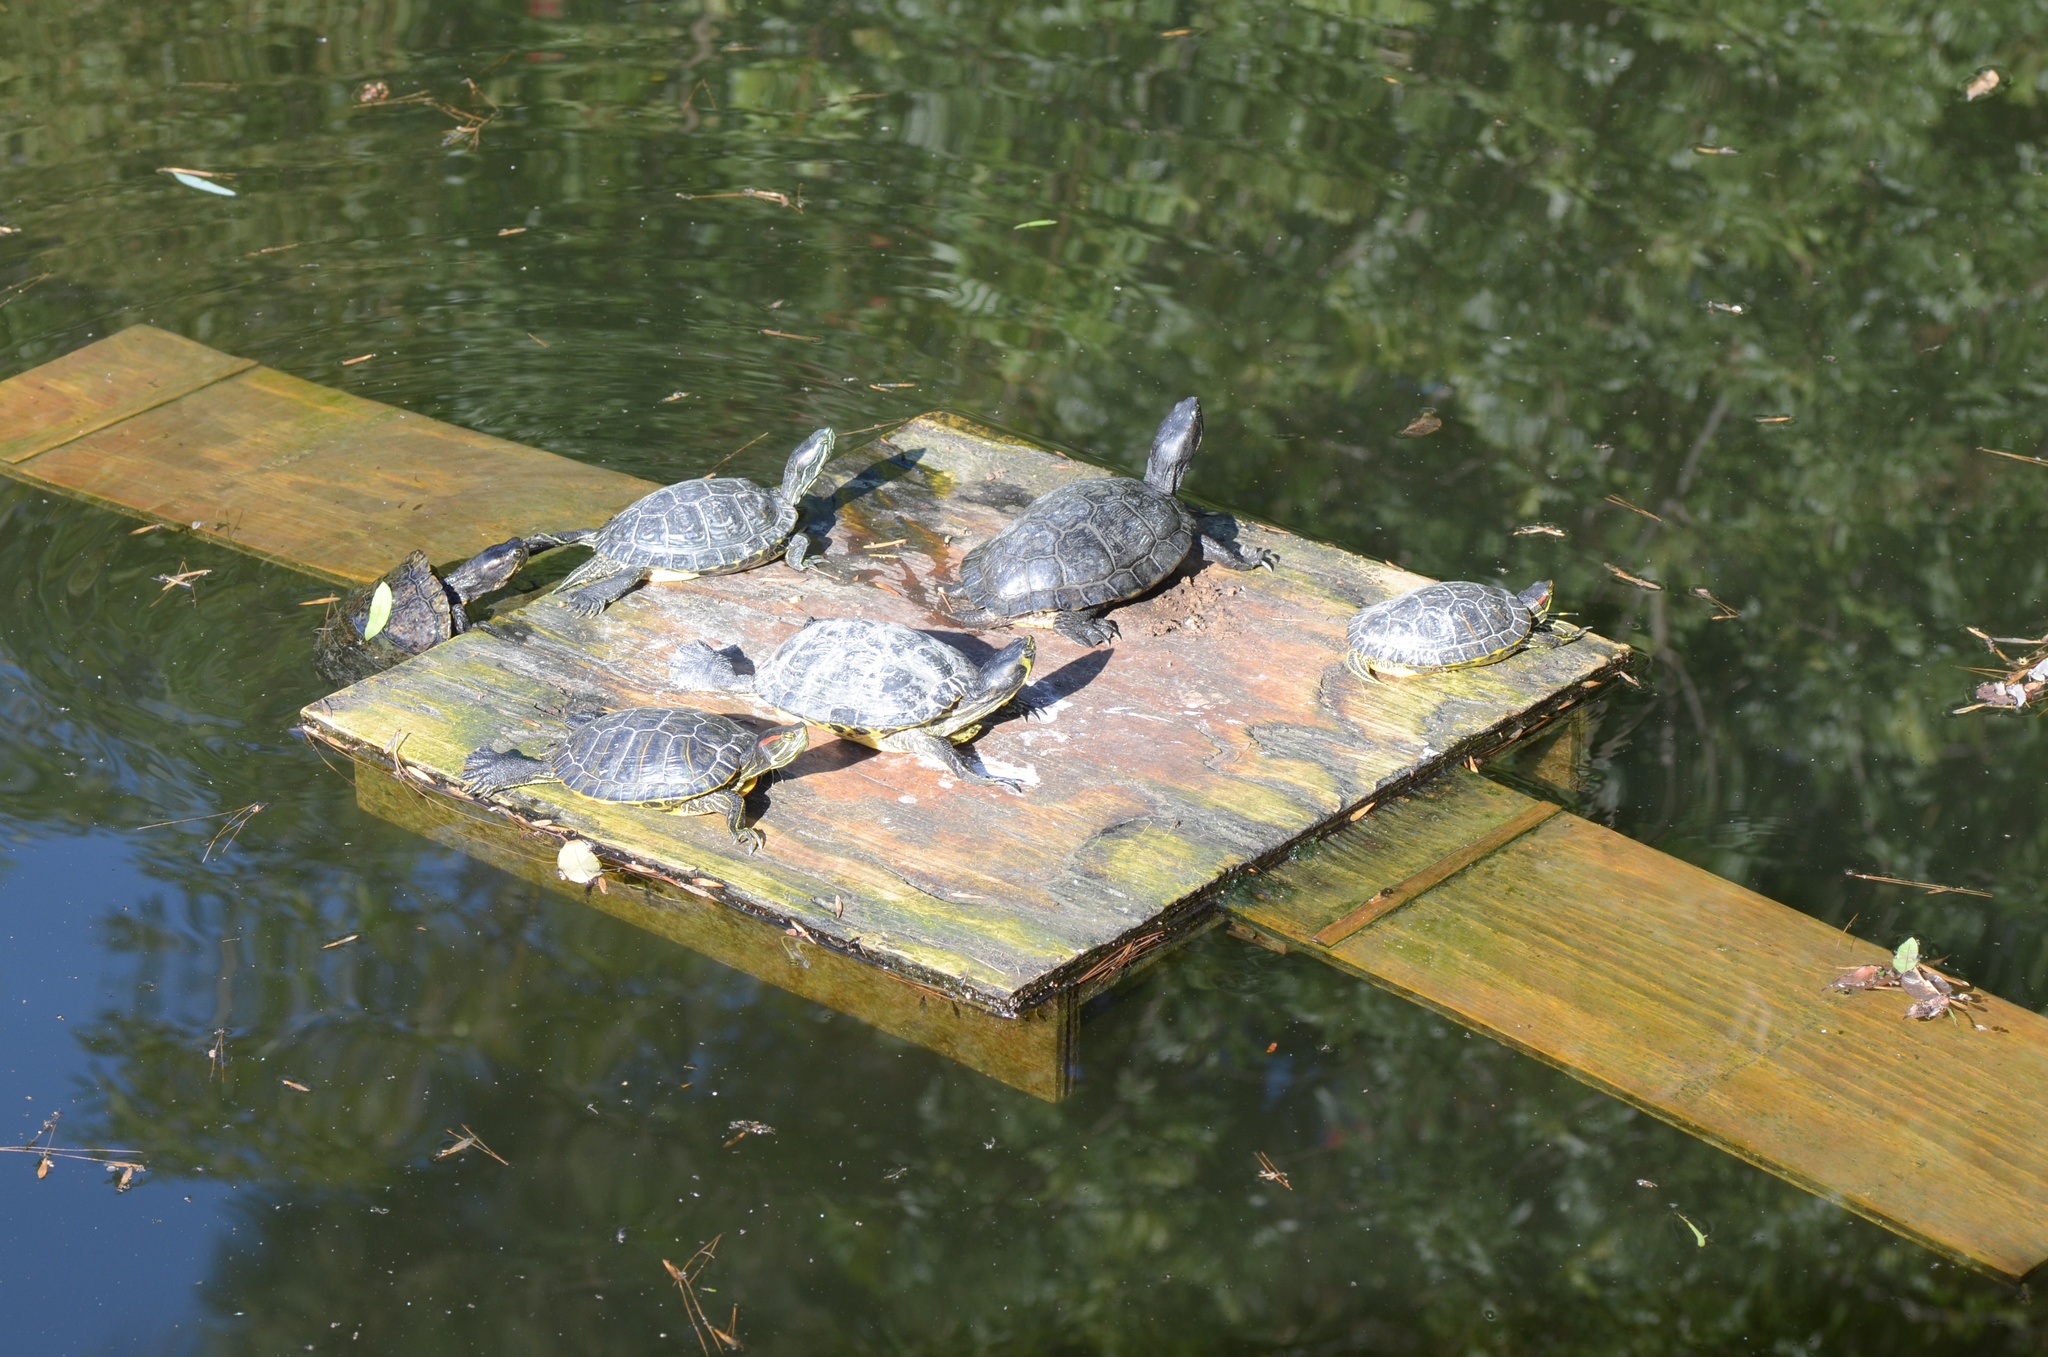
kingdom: Animalia
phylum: Chordata
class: Testudines
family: Emydidae
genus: Trachemys
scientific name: Trachemys scripta
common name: Slider
